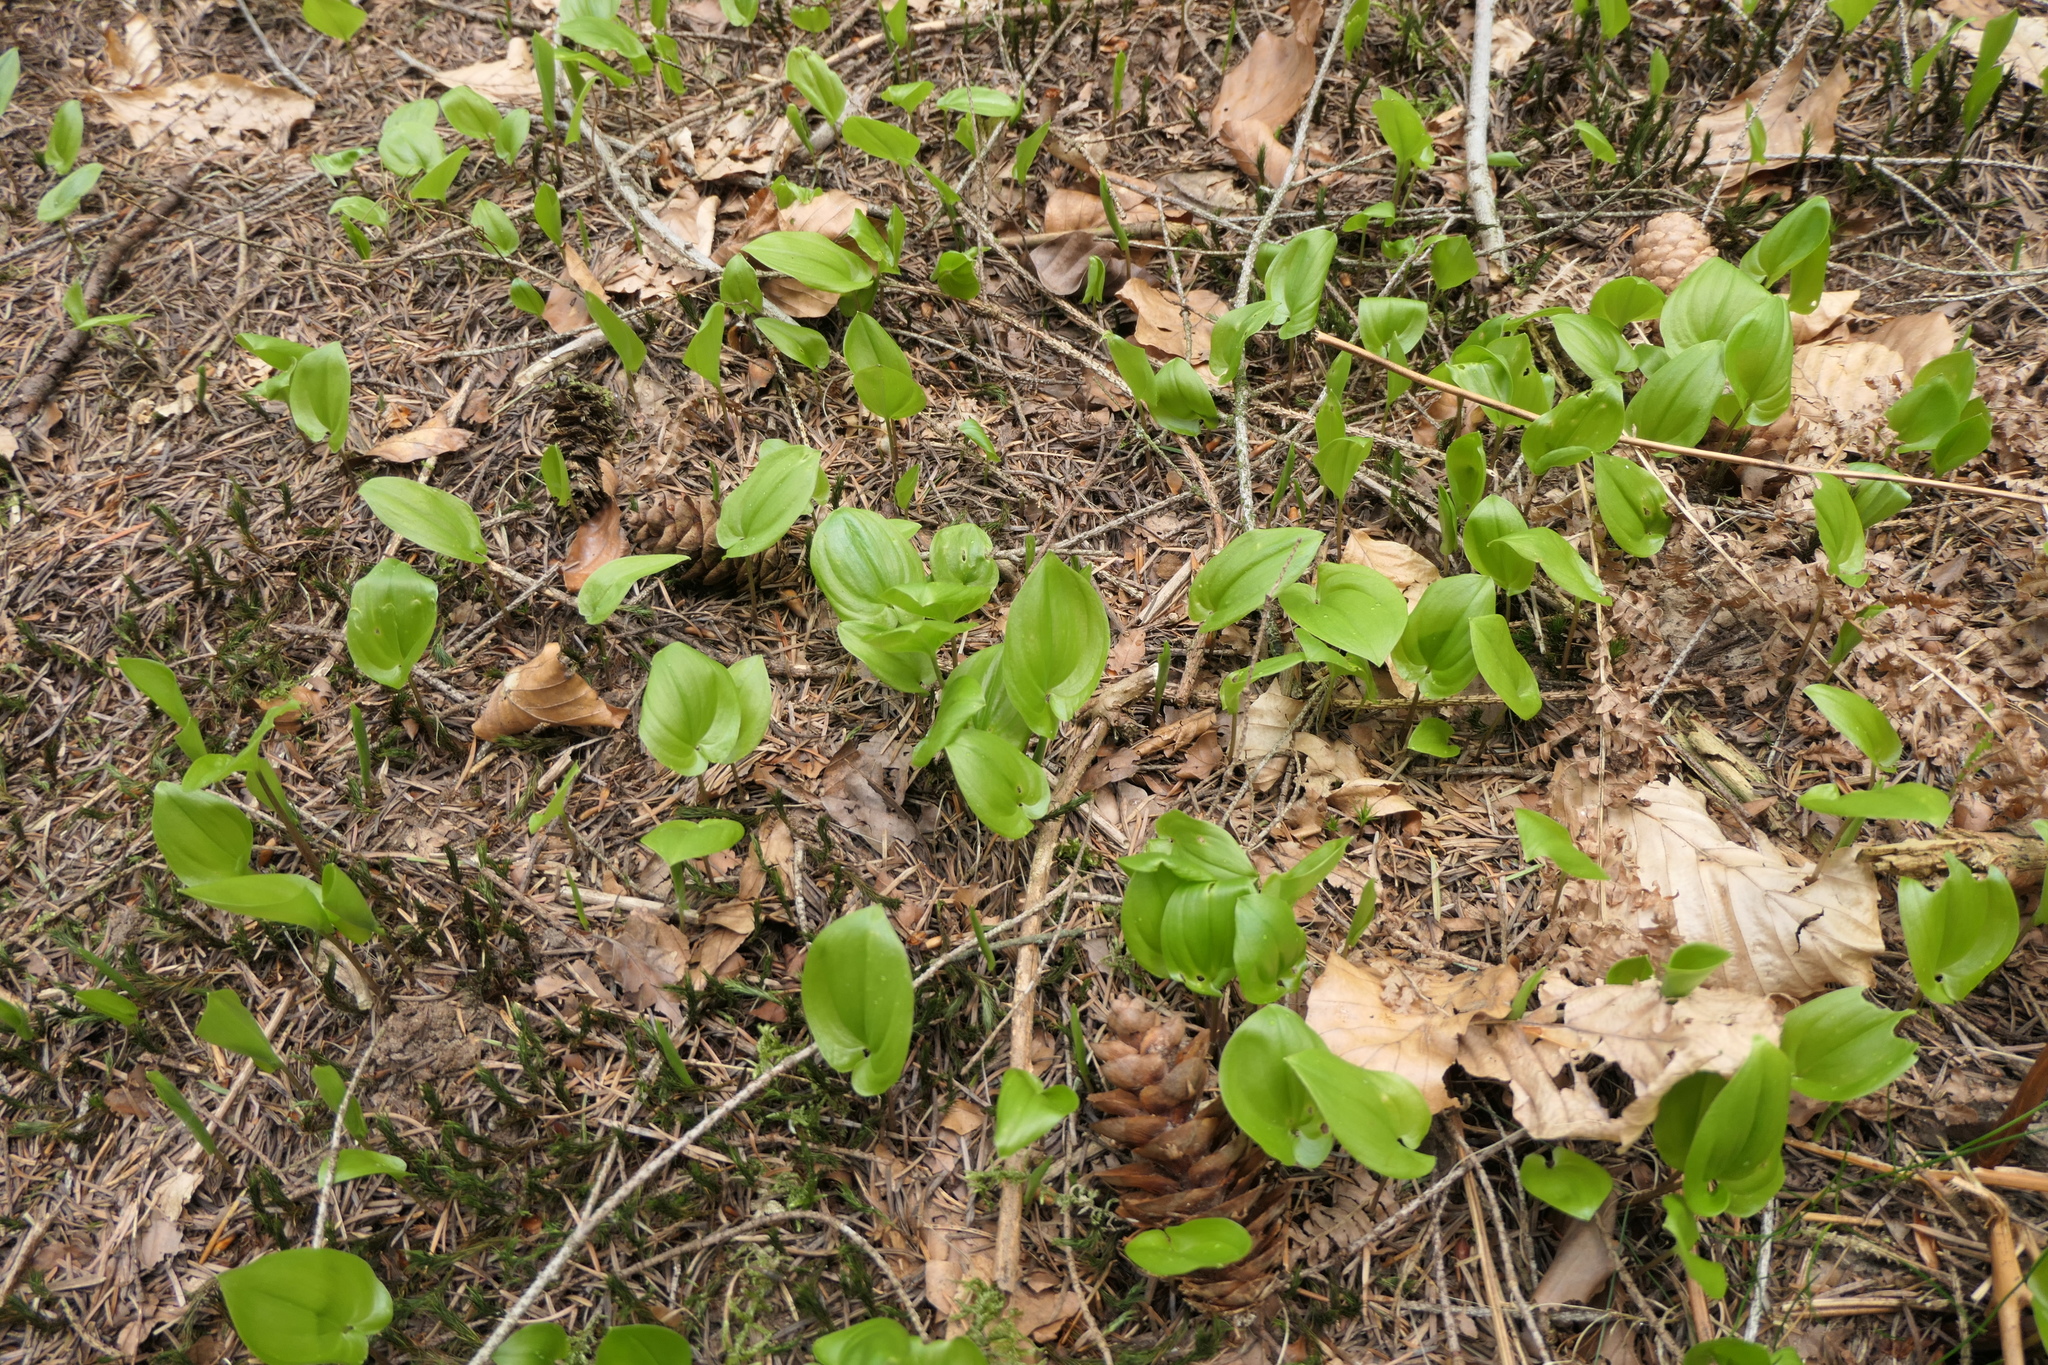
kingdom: Plantae
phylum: Tracheophyta
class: Liliopsida
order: Asparagales
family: Asparagaceae
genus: Maianthemum
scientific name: Maianthemum bifolium
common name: May lily
